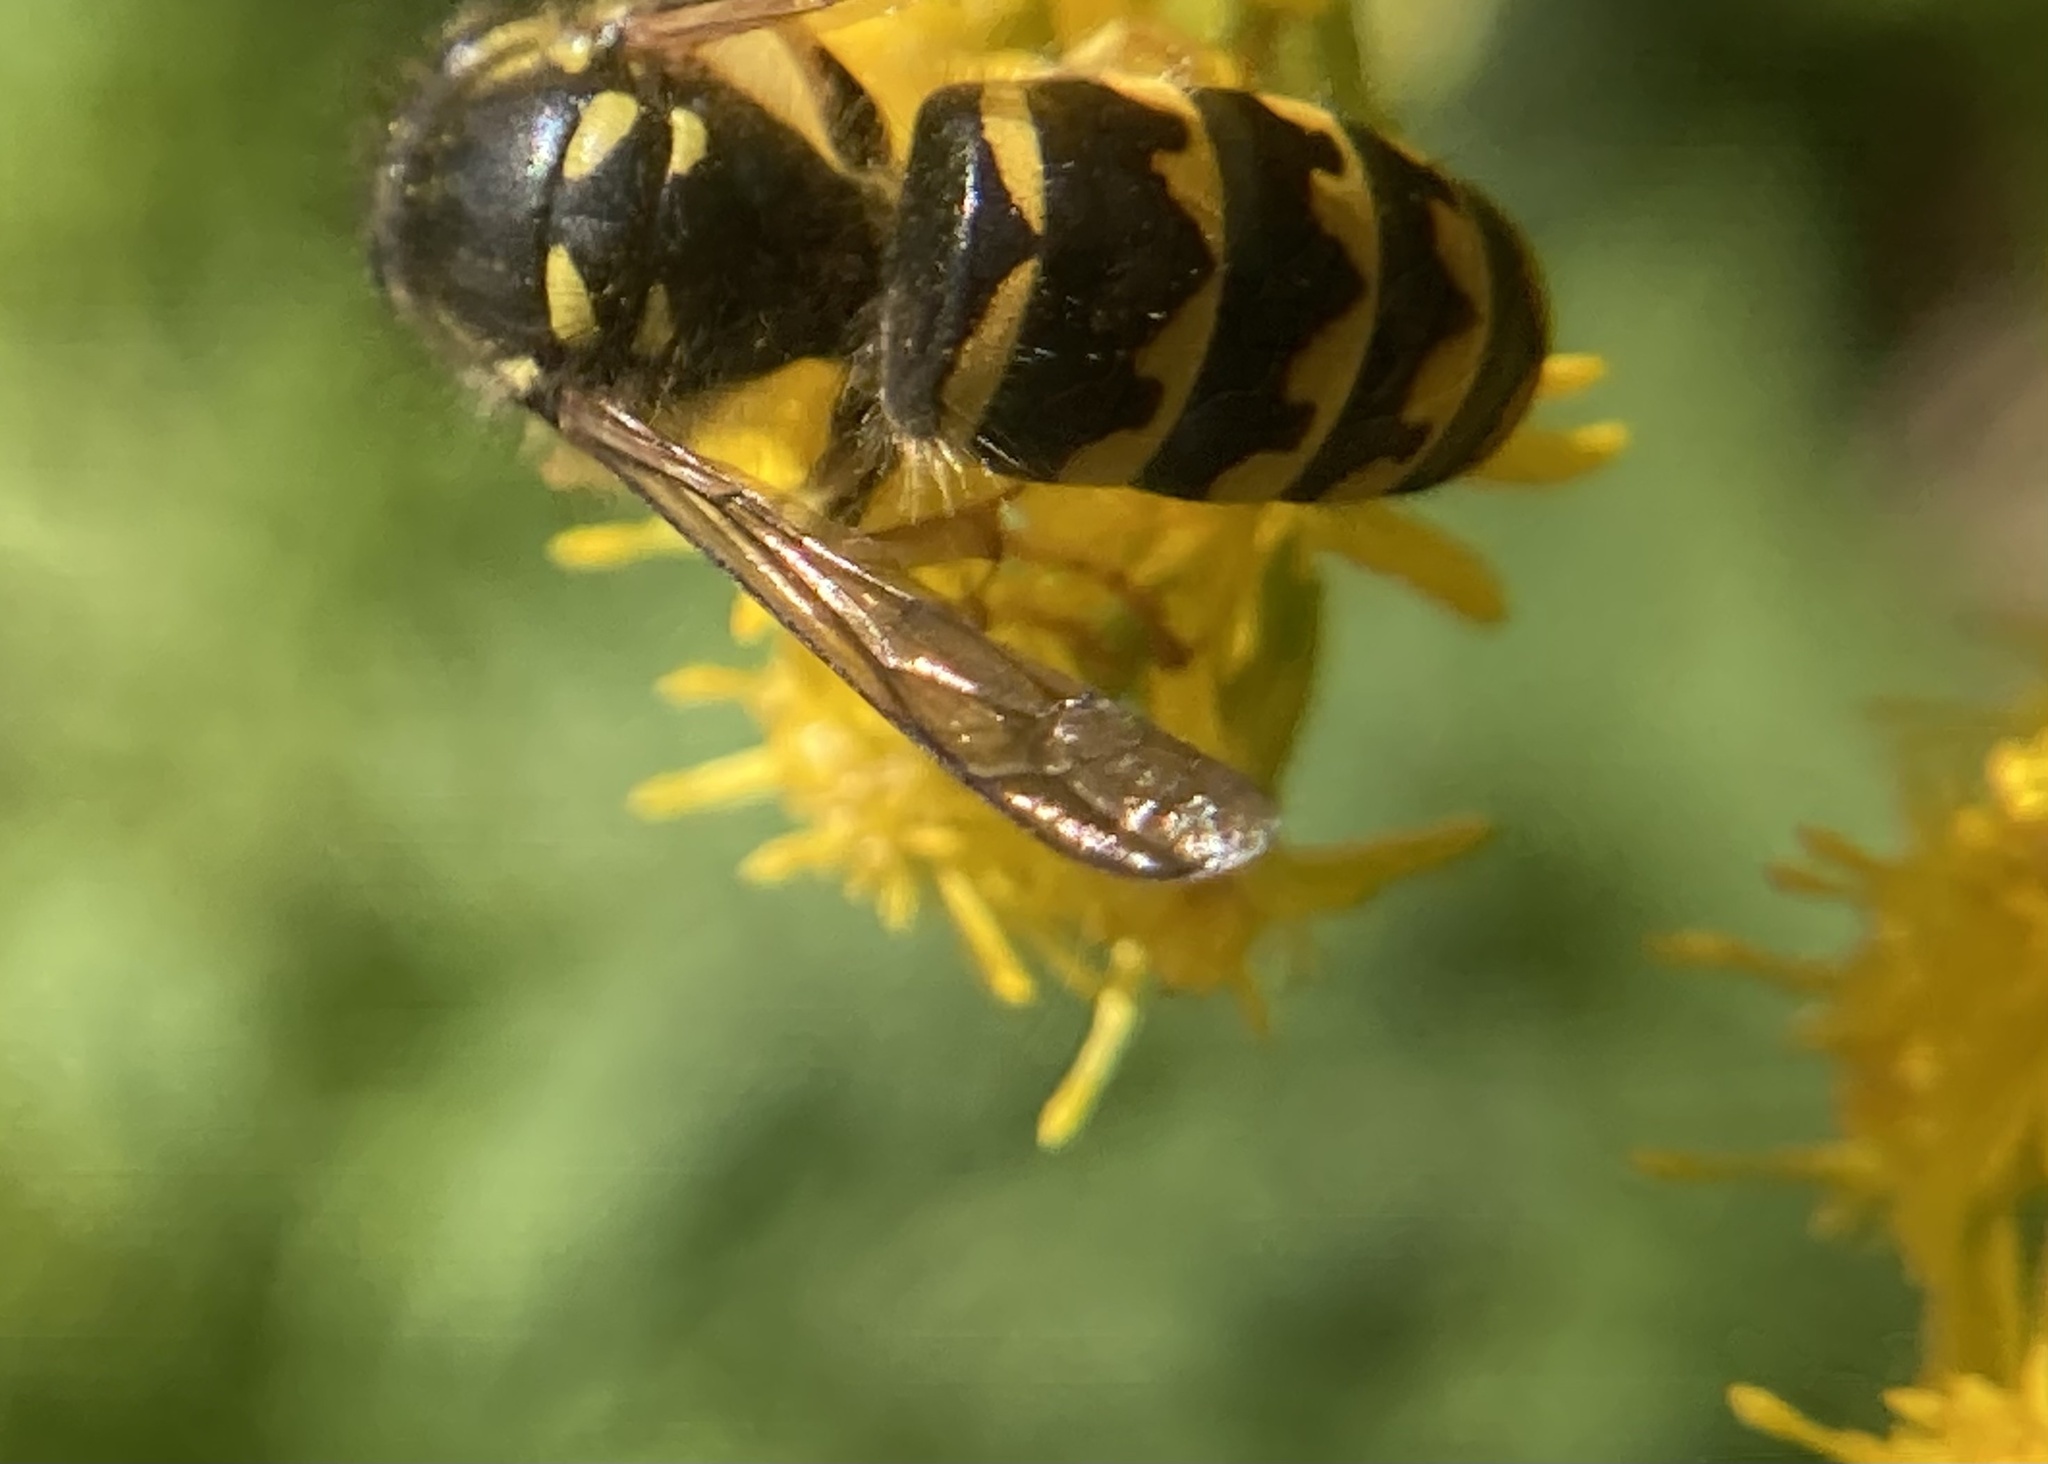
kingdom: Animalia
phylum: Arthropoda
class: Insecta
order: Hymenoptera
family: Vespidae
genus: Dolichovespula
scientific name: Dolichovespula arenaria
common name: Aerial yellowjacket
